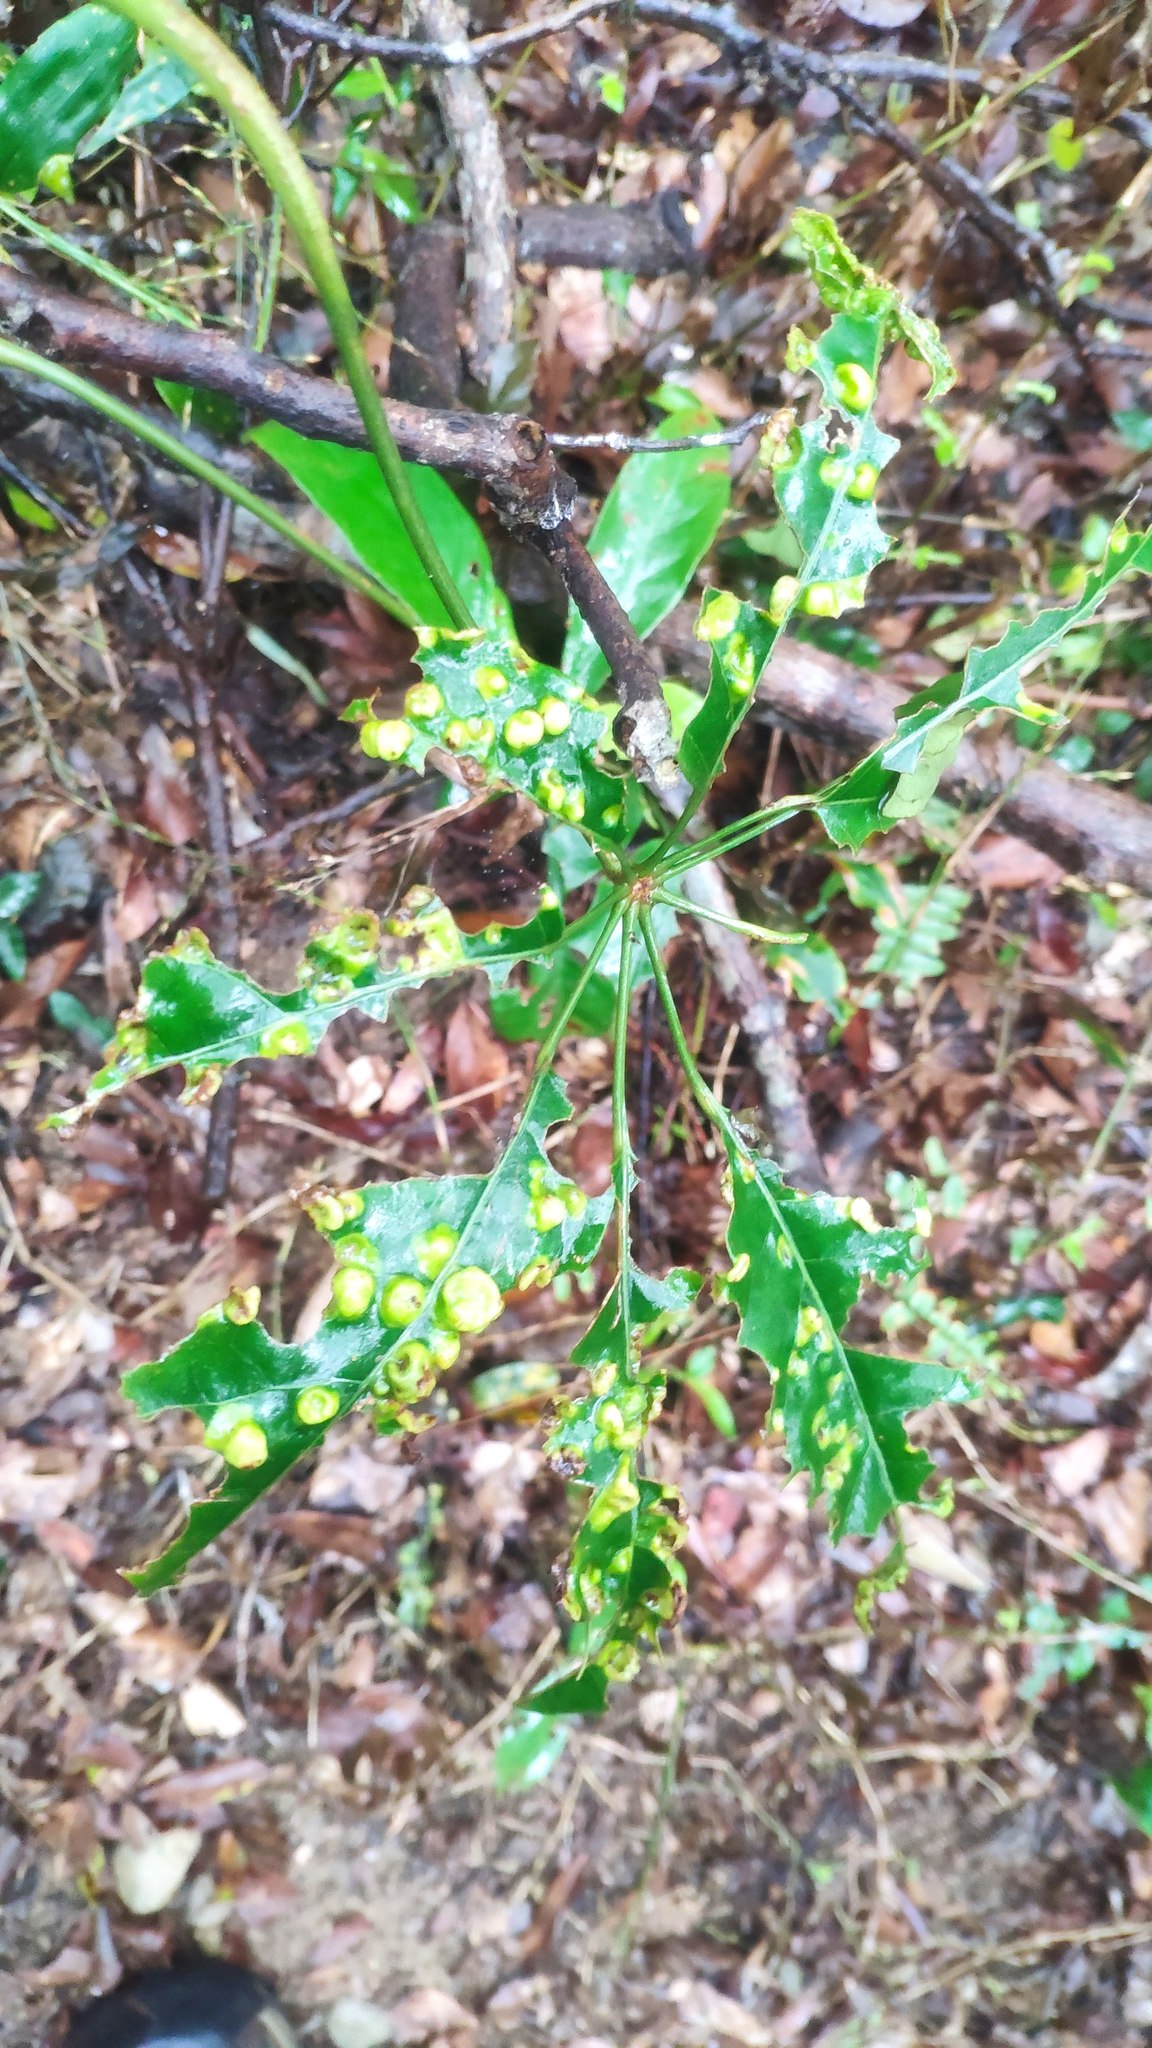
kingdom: Plantae
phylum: Tracheophyta
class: Magnoliopsida
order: Apiales
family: Araliaceae
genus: Heptapleurum
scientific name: Heptapleurum heptaphyllum
